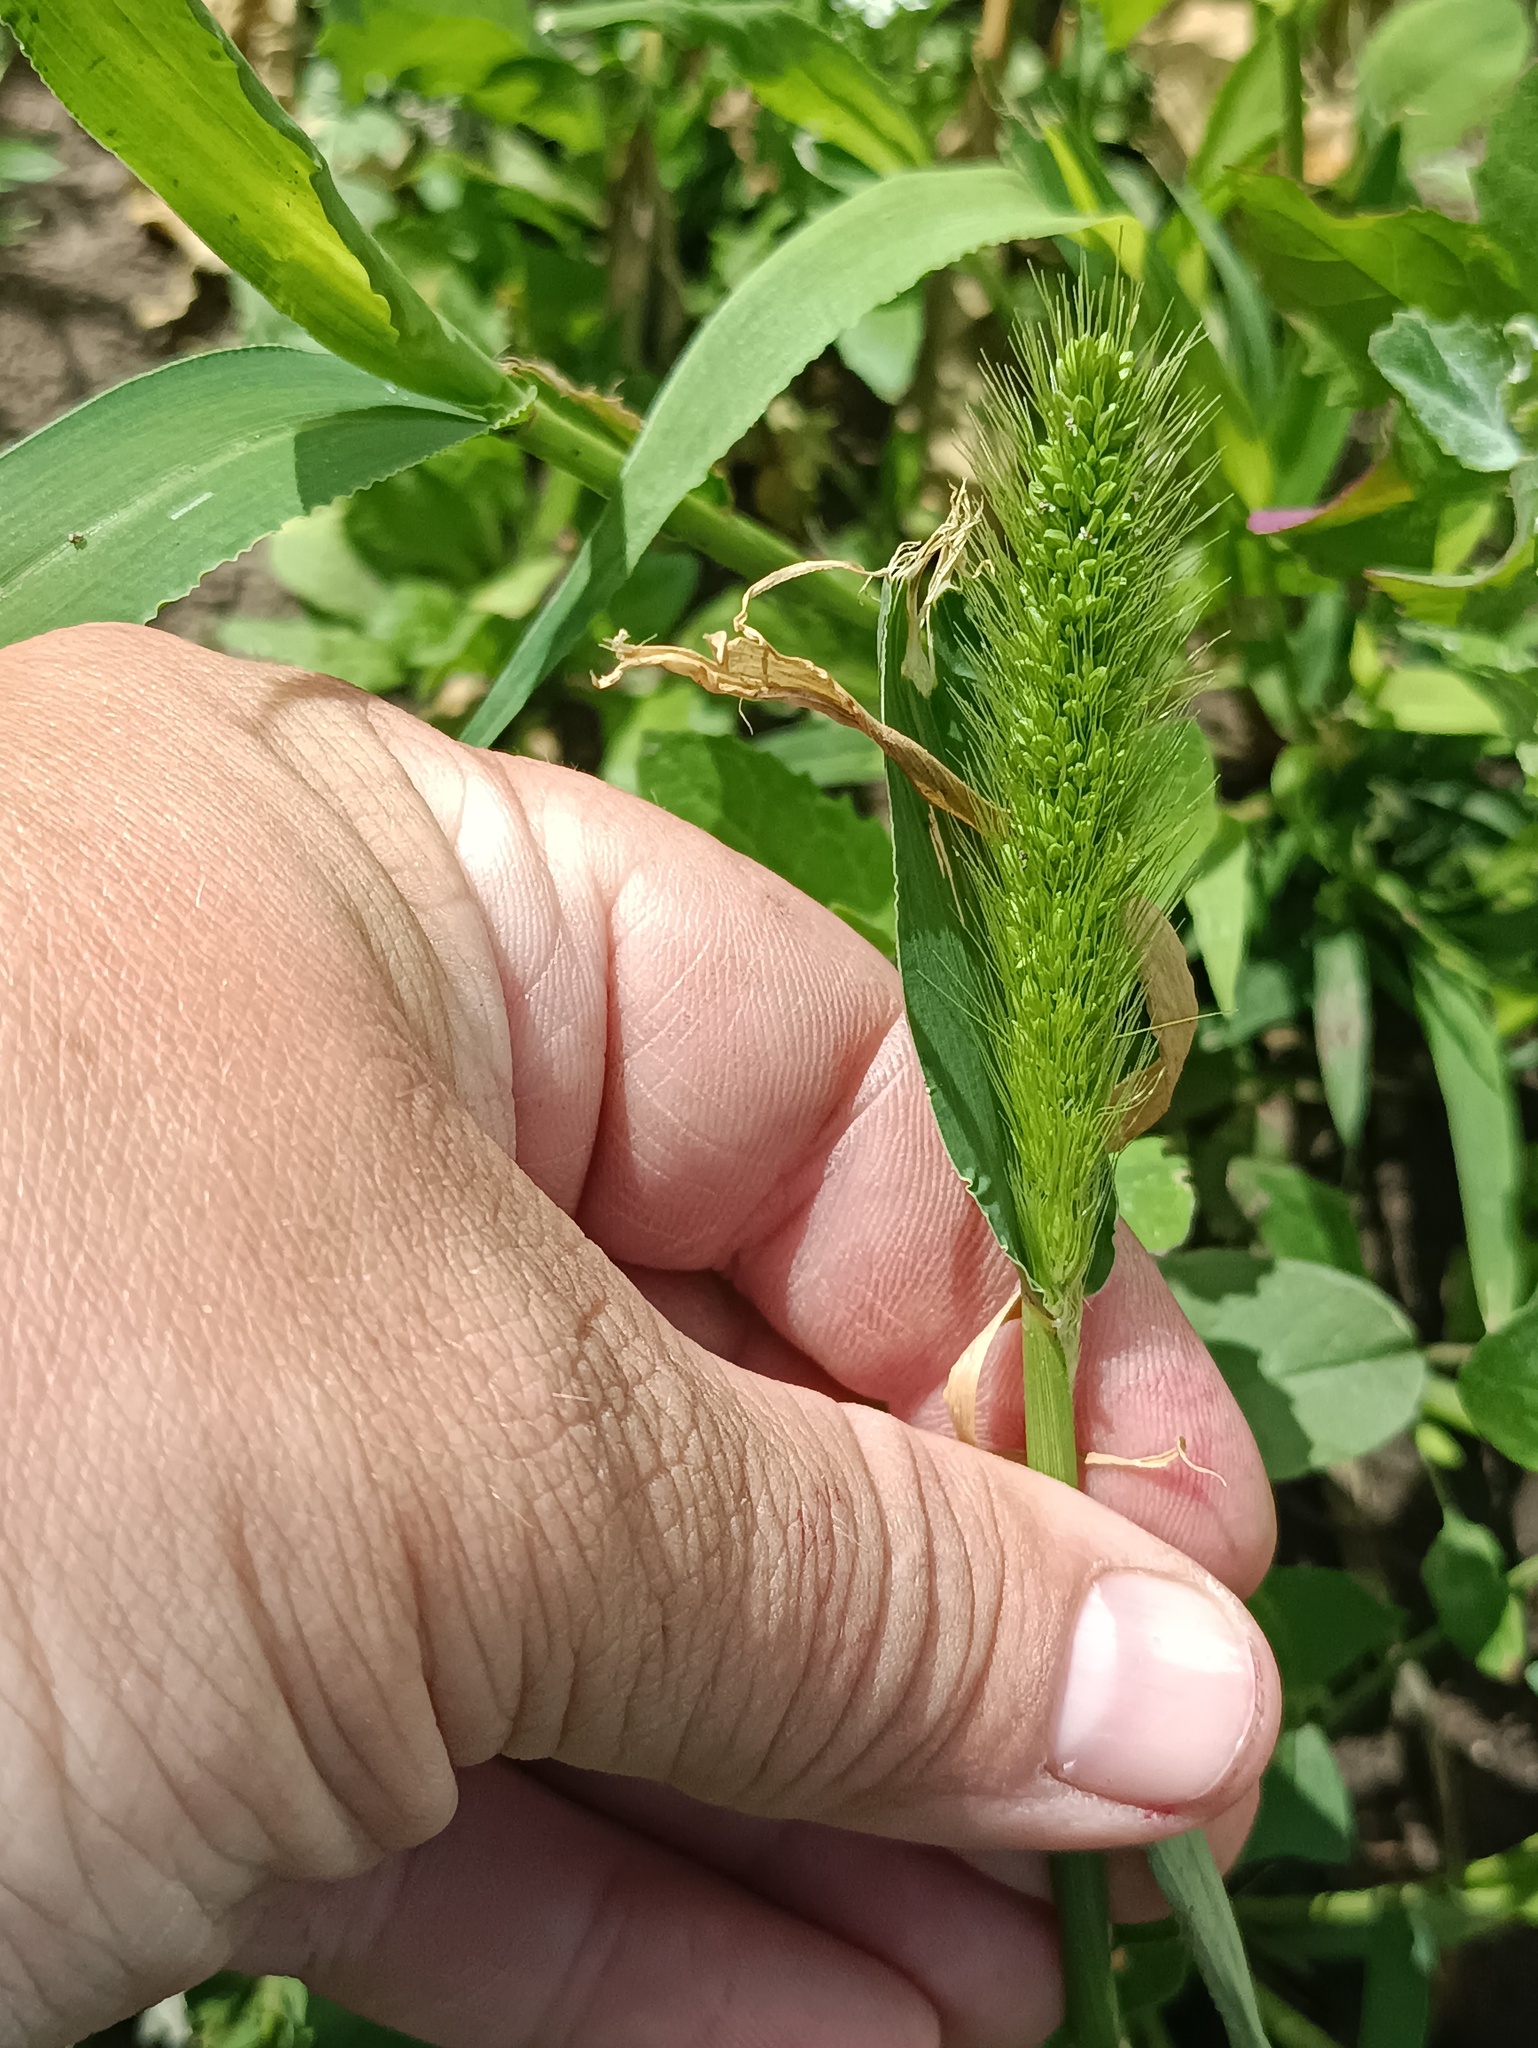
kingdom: Plantae
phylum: Tracheophyta
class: Liliopsida
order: Poales
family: Poaceae
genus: Setaria
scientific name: Setaria viridis
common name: Green bristlegrass
